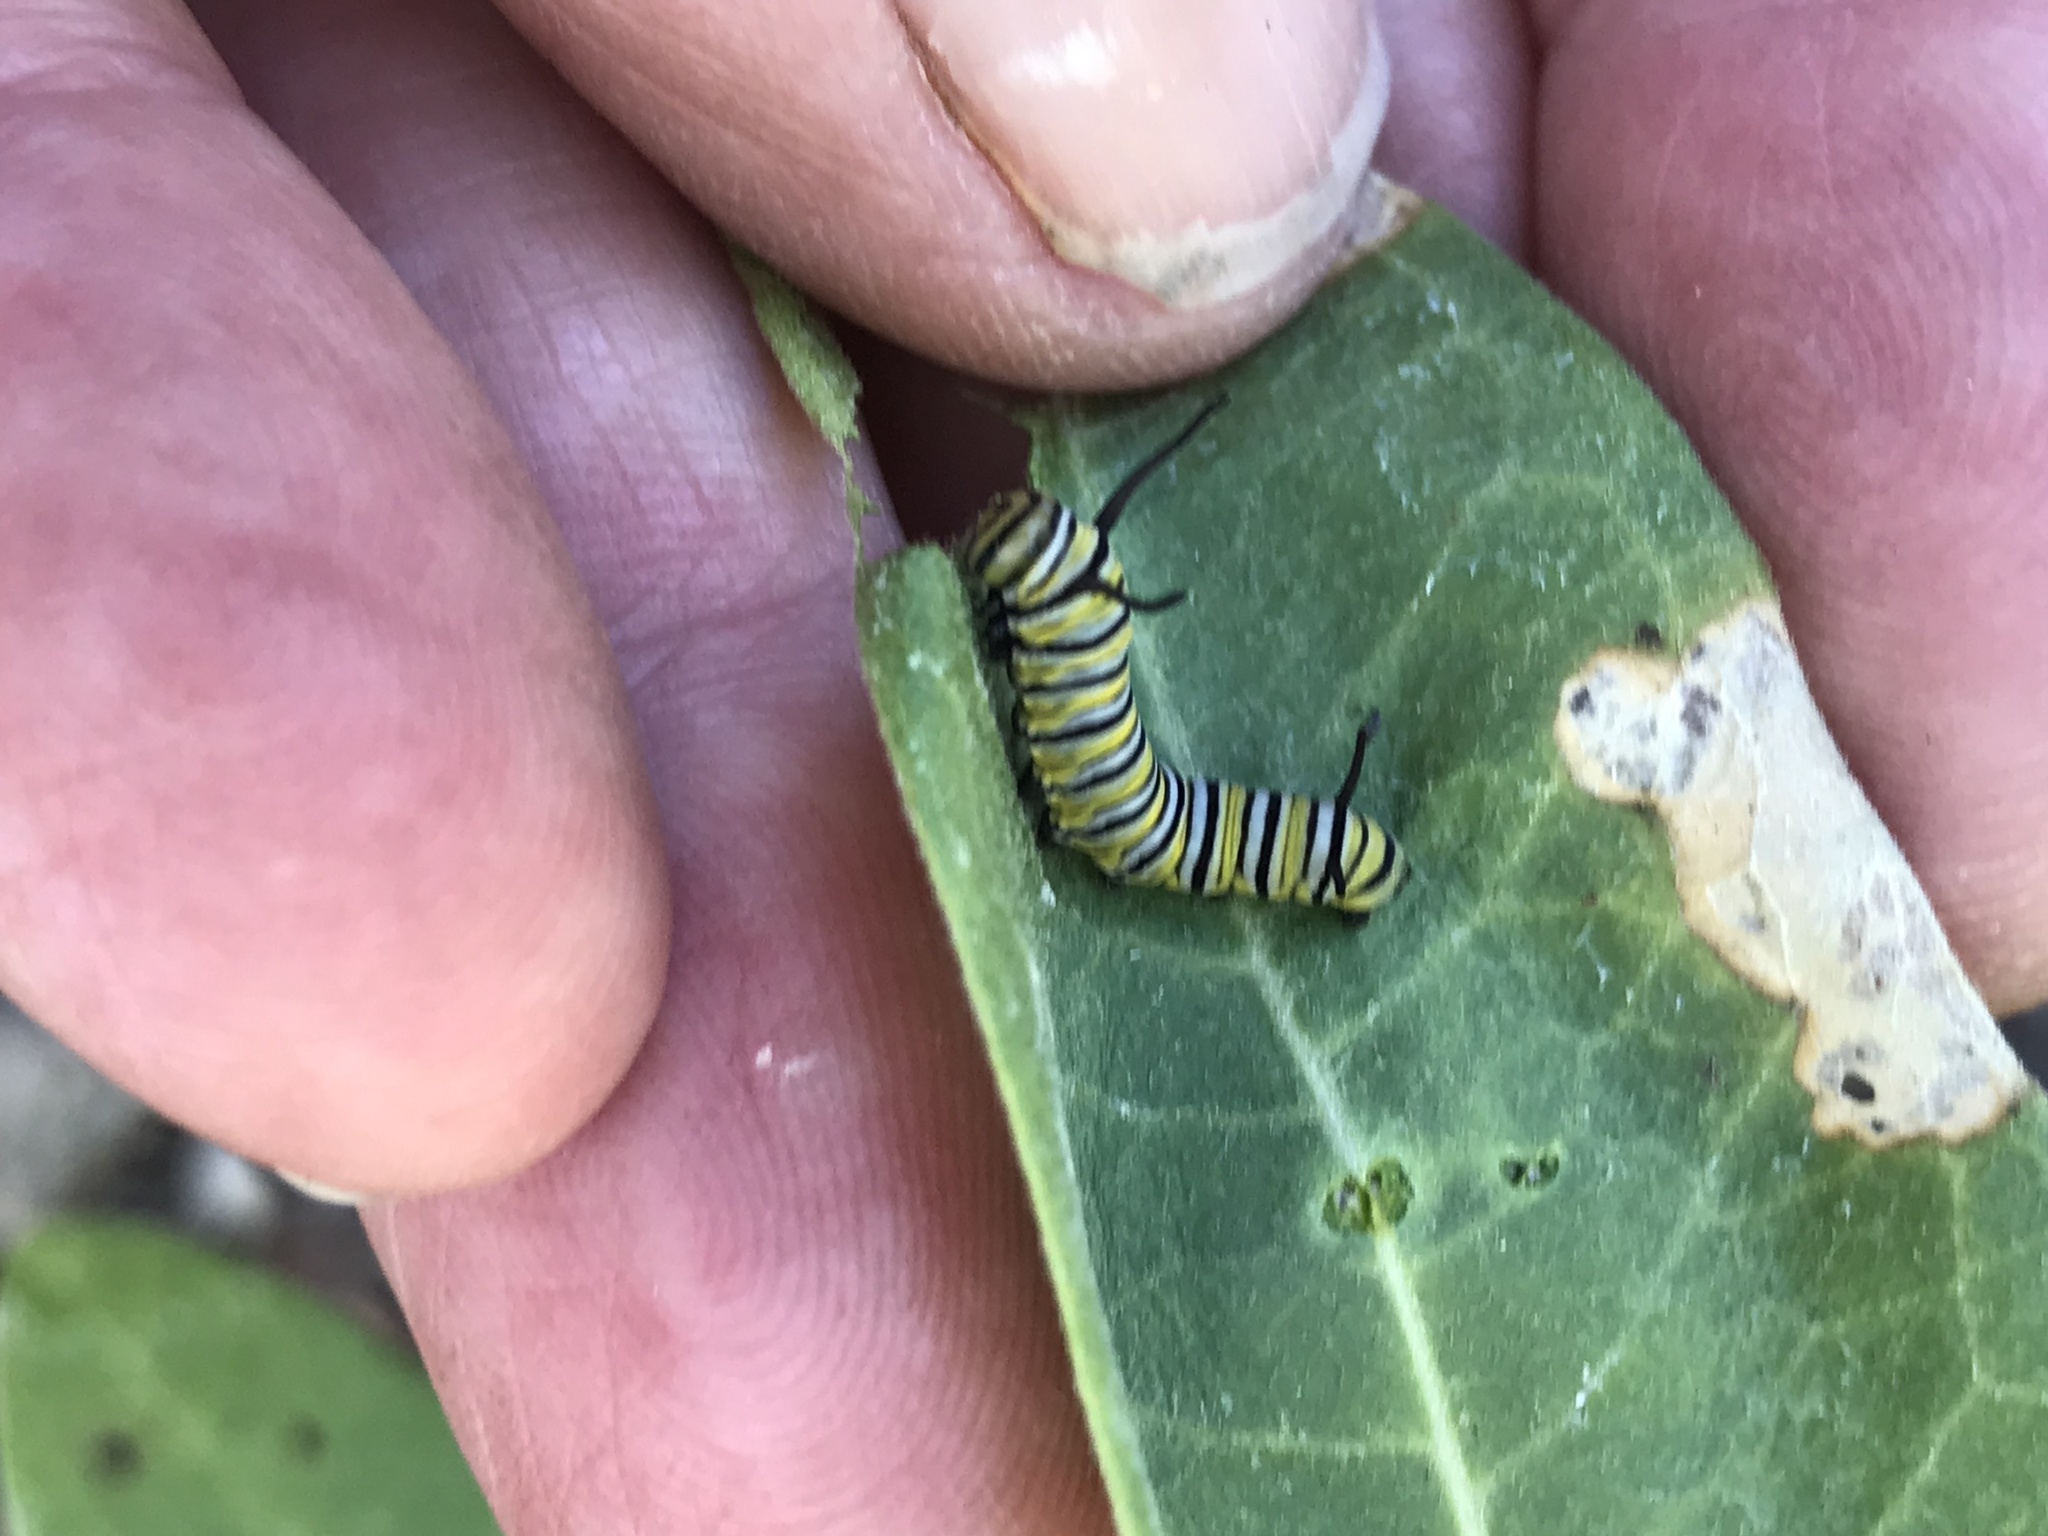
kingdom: Animalia
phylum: Arthropoda
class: Insecta
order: Lepidoptera
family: Nymphalidae
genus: Danaus
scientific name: Danaus plexippus
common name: Monarch
